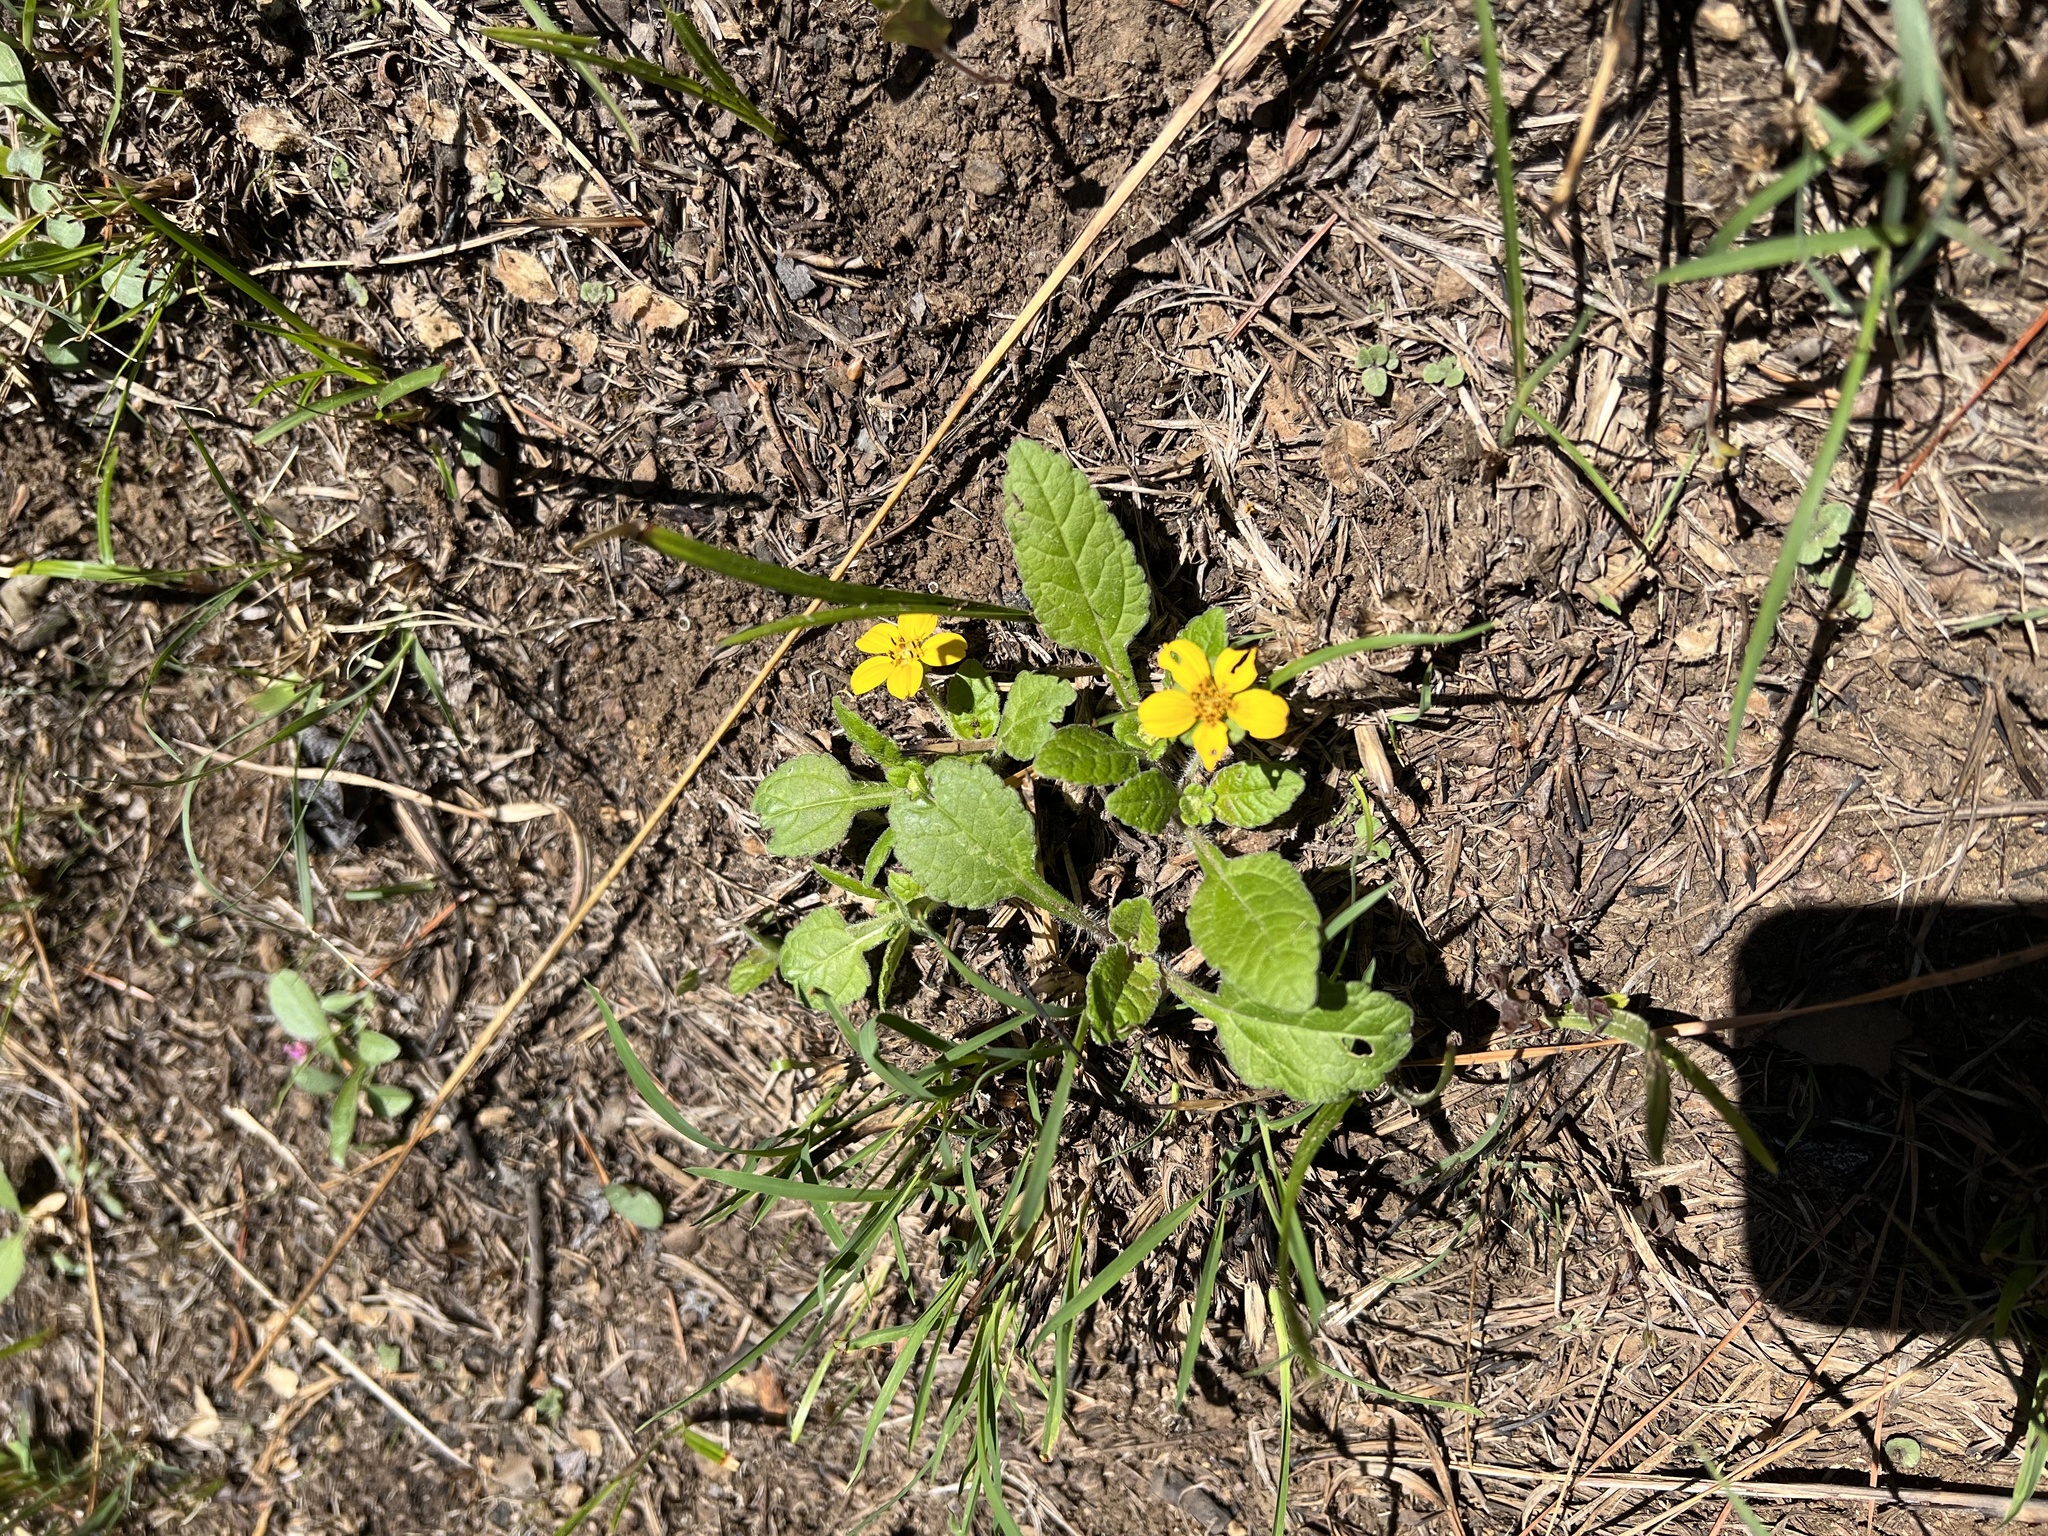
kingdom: Plantae
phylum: Tracheophyta
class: Magnoliopsida
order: Asterales
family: Asteraceae
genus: Chrysogonum
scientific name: Chrysogonum virginianum
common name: Golden-knee
